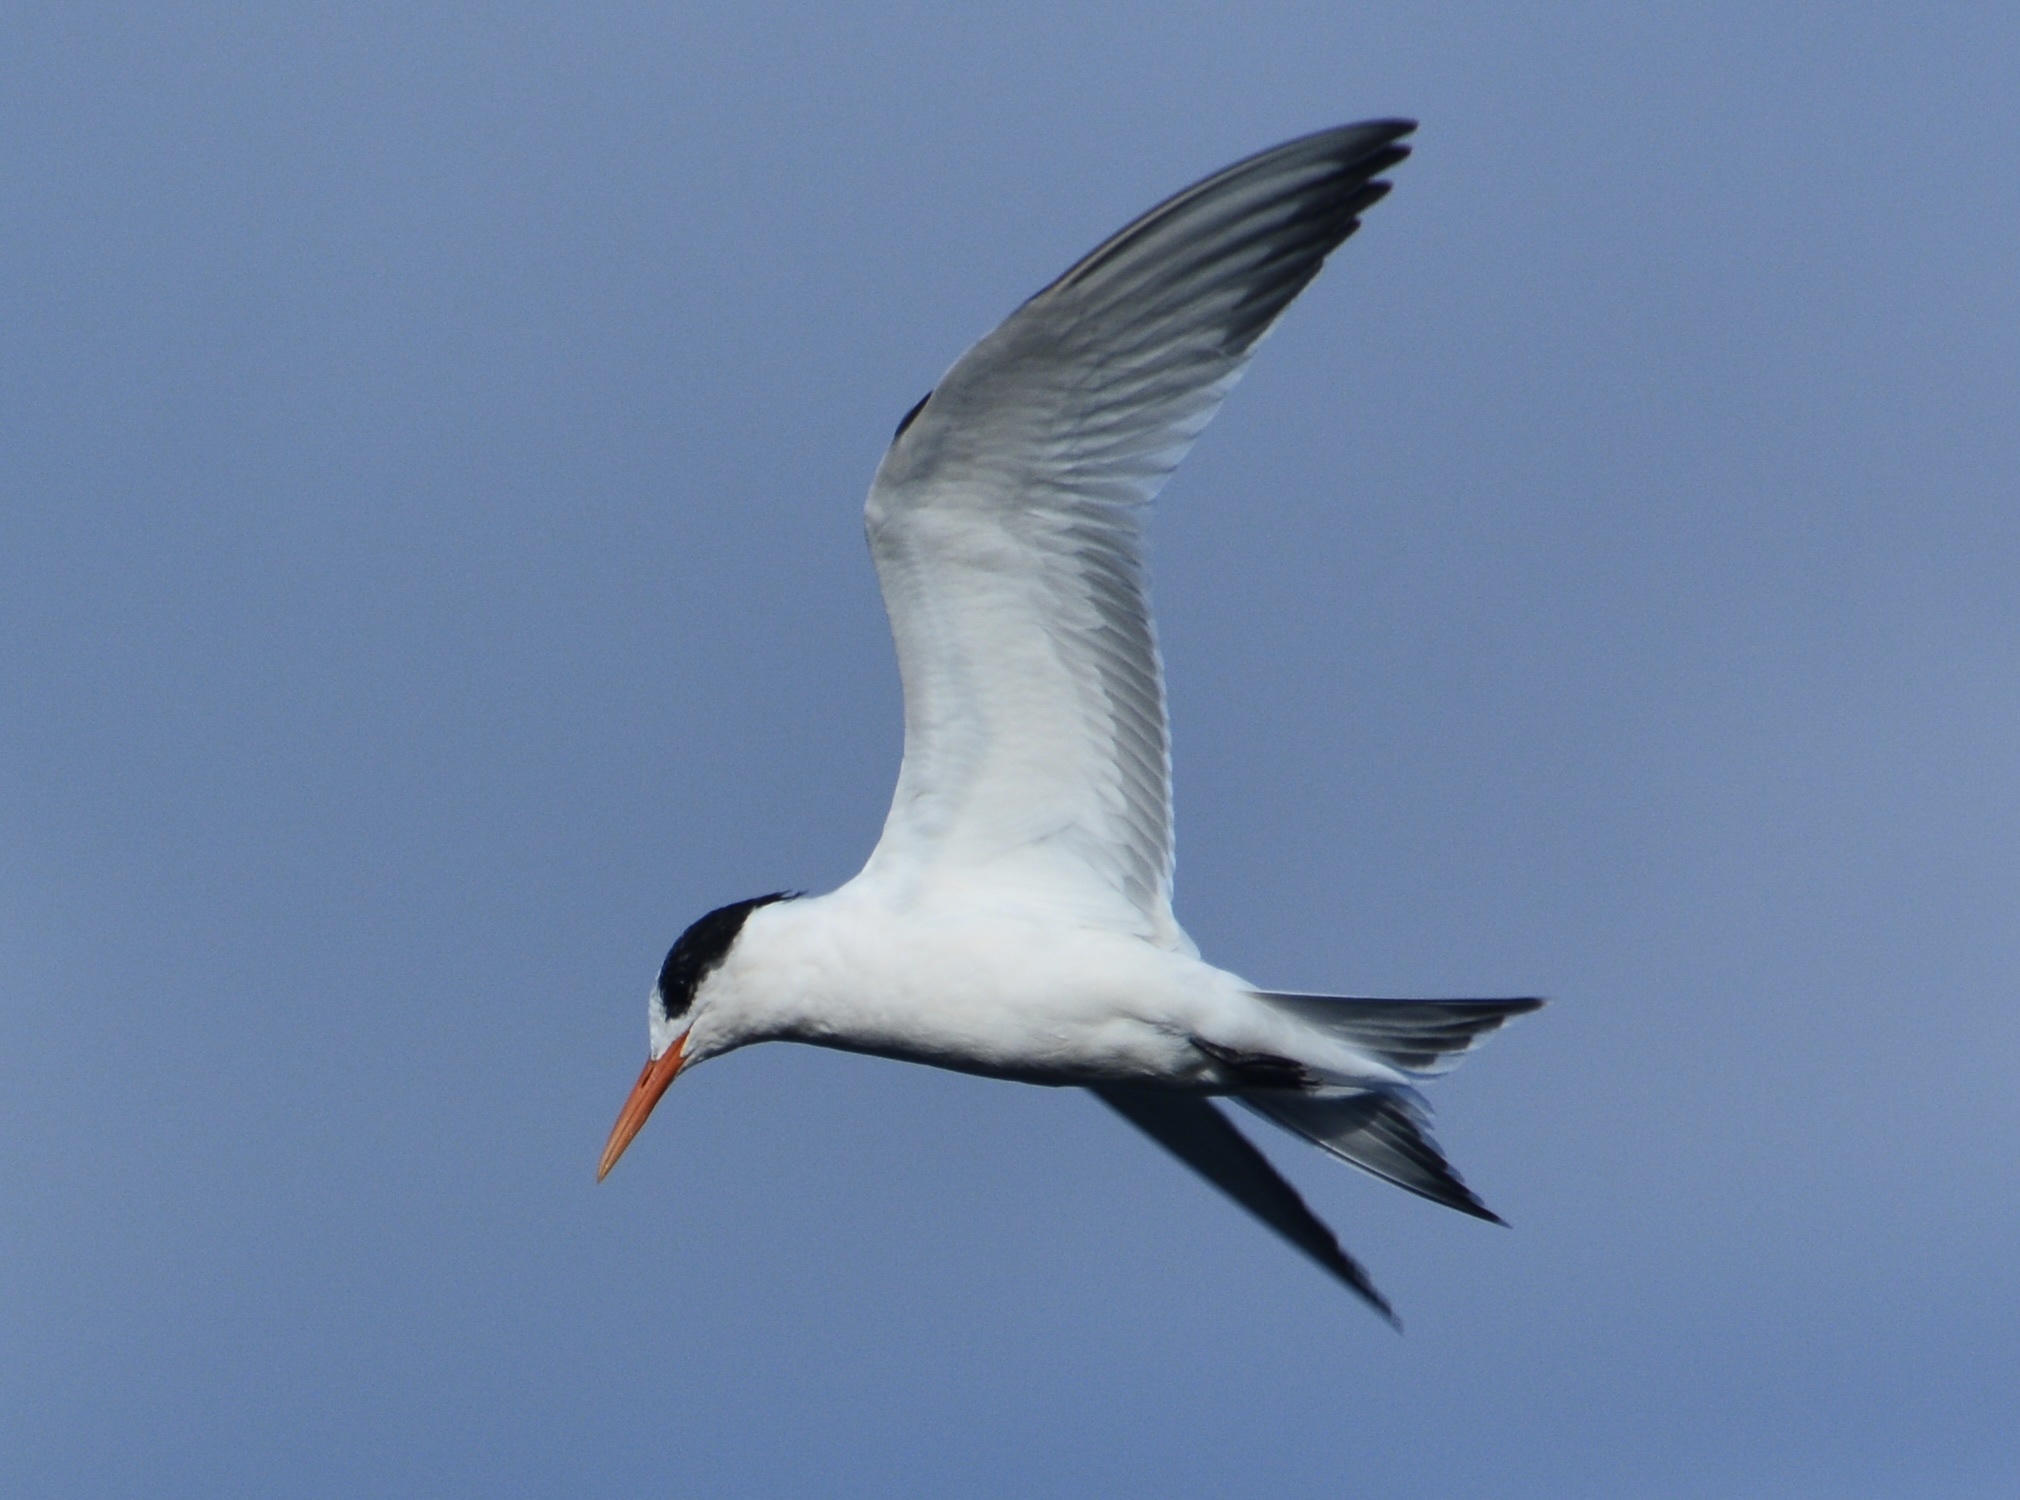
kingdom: Animalia
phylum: Chordata
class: Aves
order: Charadriiformes
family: Laridae
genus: Thalasseus
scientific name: Thalasseus elegans
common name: Elegant tern
